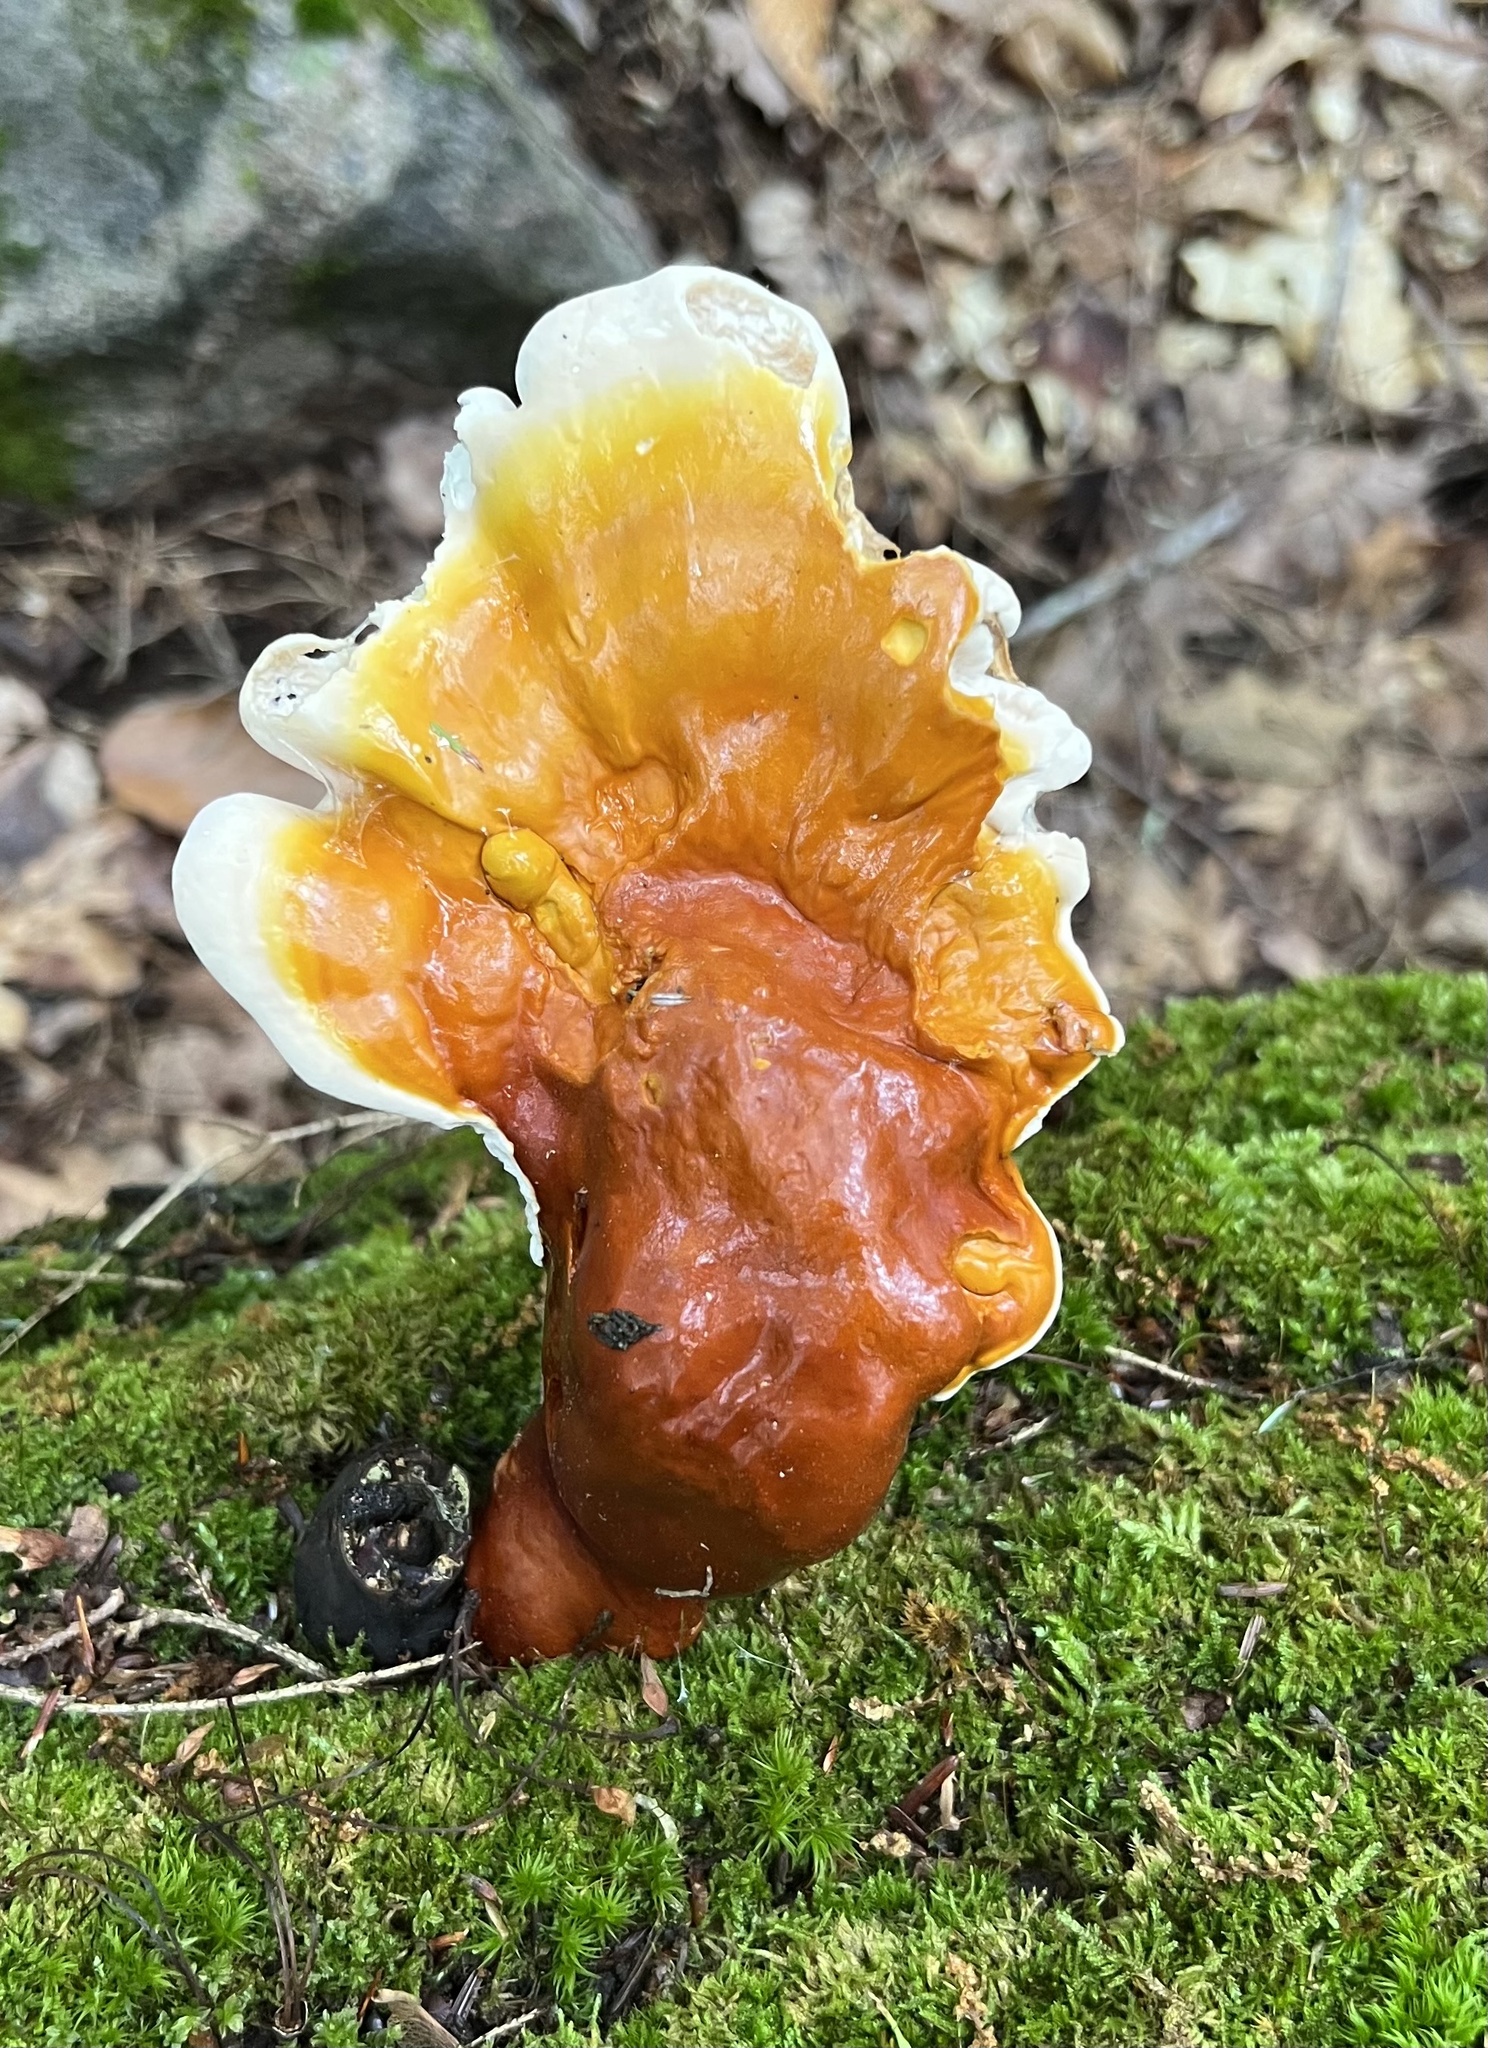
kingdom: Fungi
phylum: Basidiomycota
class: Agaricomycetes
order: Polyporales
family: Polyporaceae
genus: Ganoderma
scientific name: Ganoderma tsugae
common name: Hemlock varnish shelf
